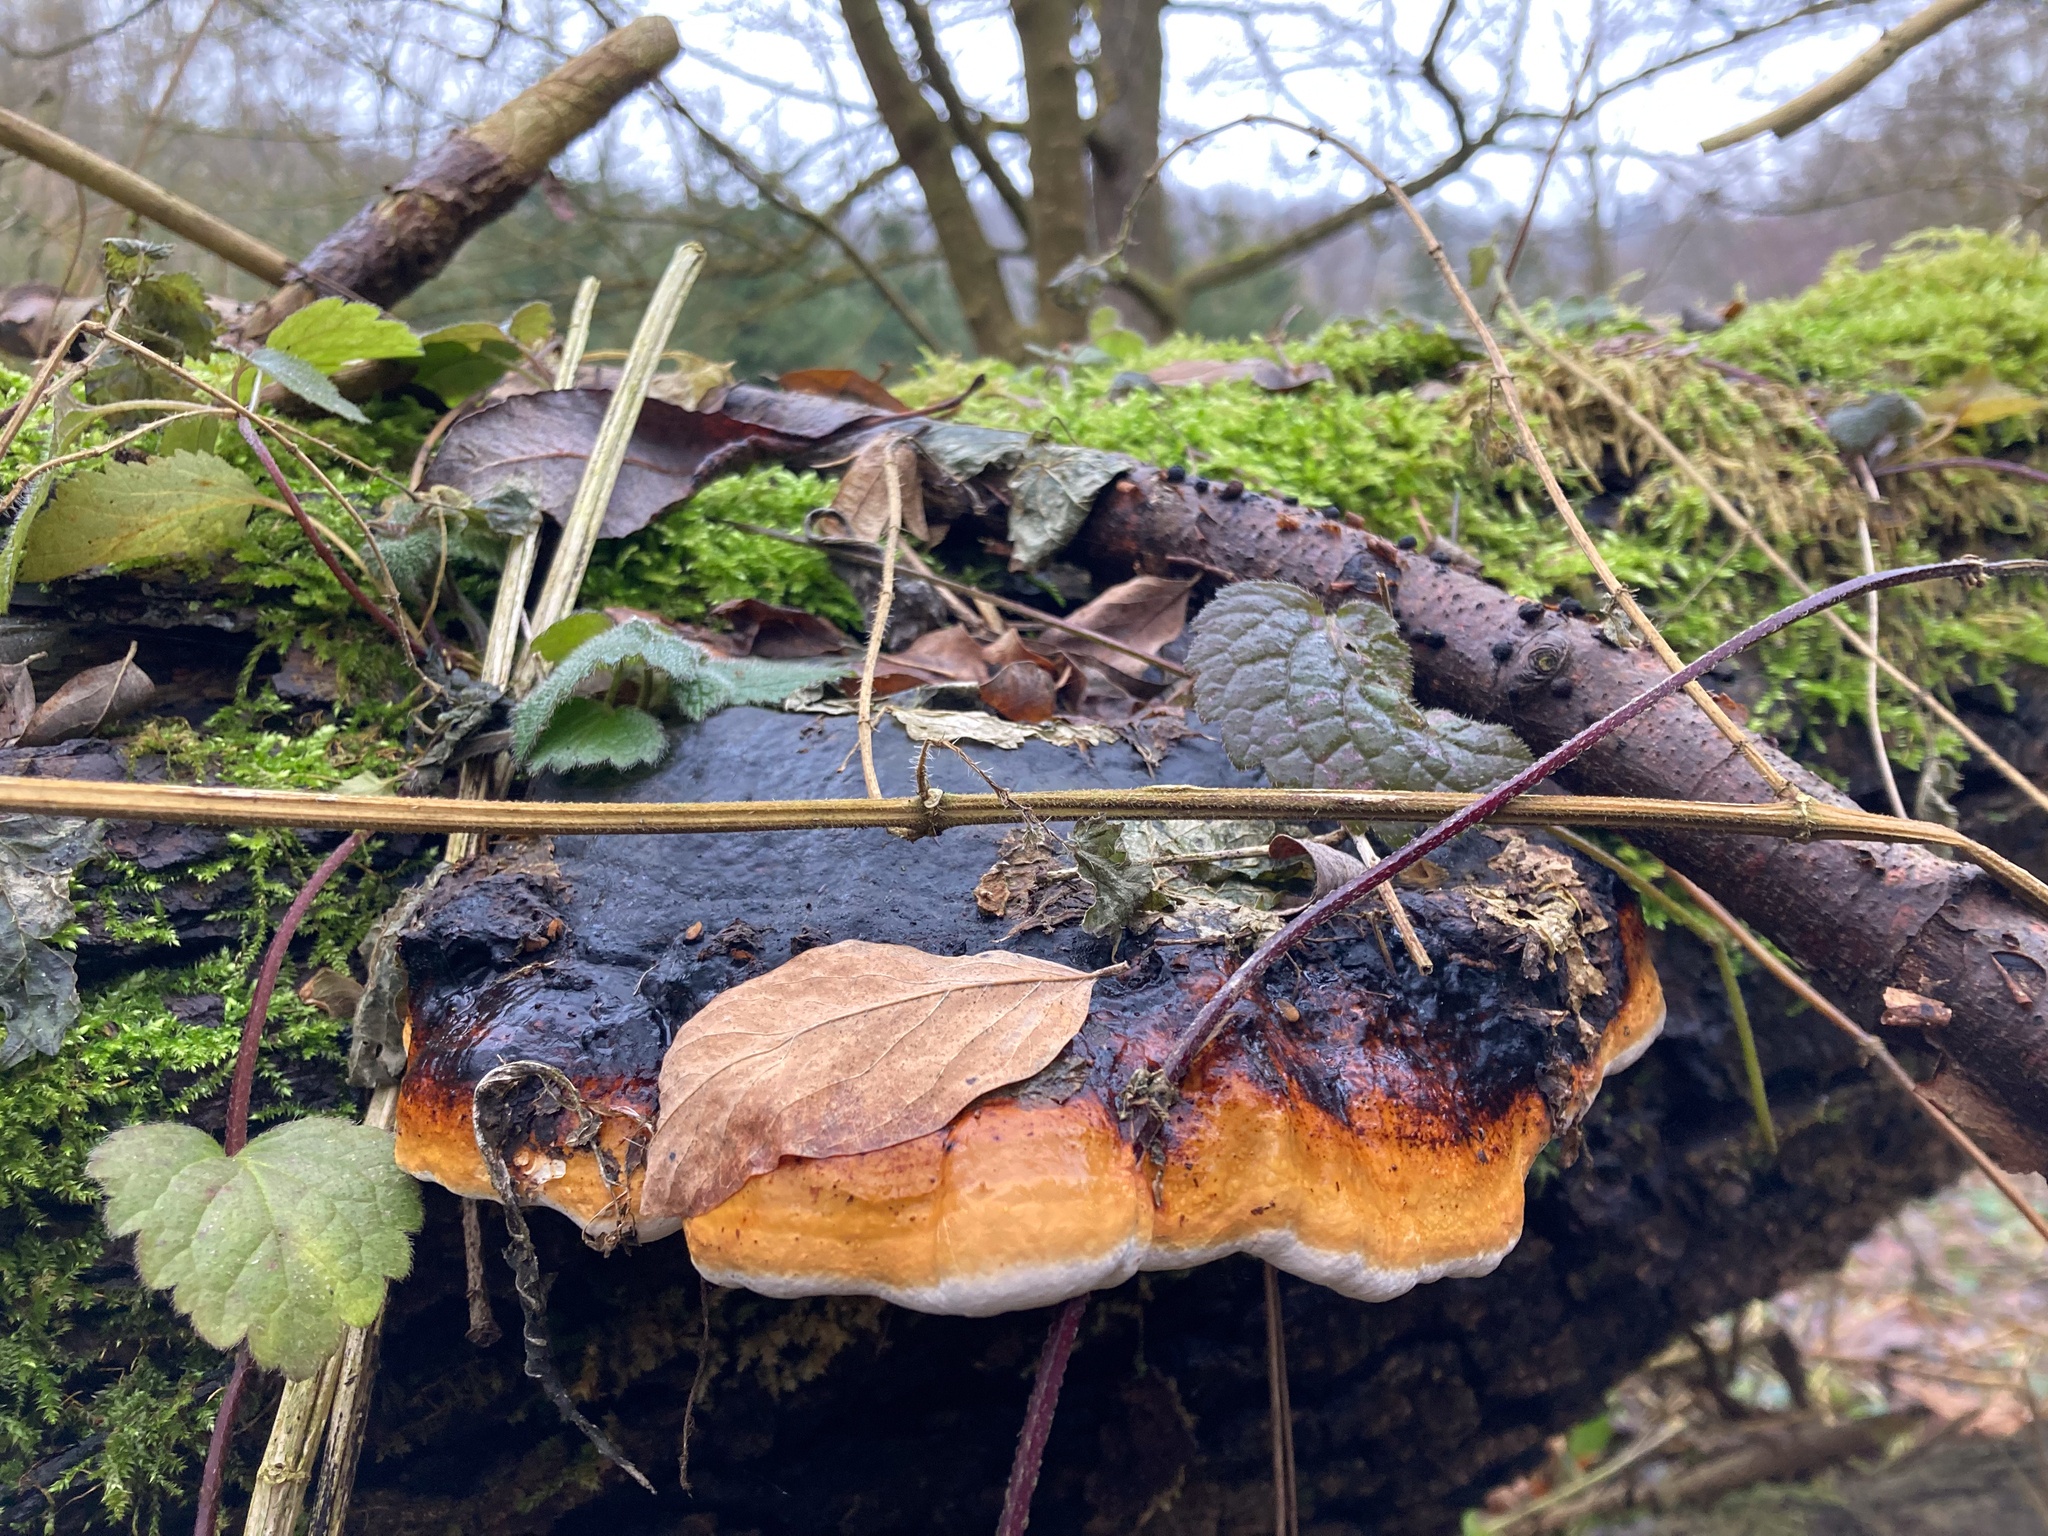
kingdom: Fungi
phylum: Basidiomycota
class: Agaricomycetes
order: Polyporales
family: Fomitopsidaceae
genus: Fomitopsis
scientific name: Fomitopsis pinicola
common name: Red-belted bracket
